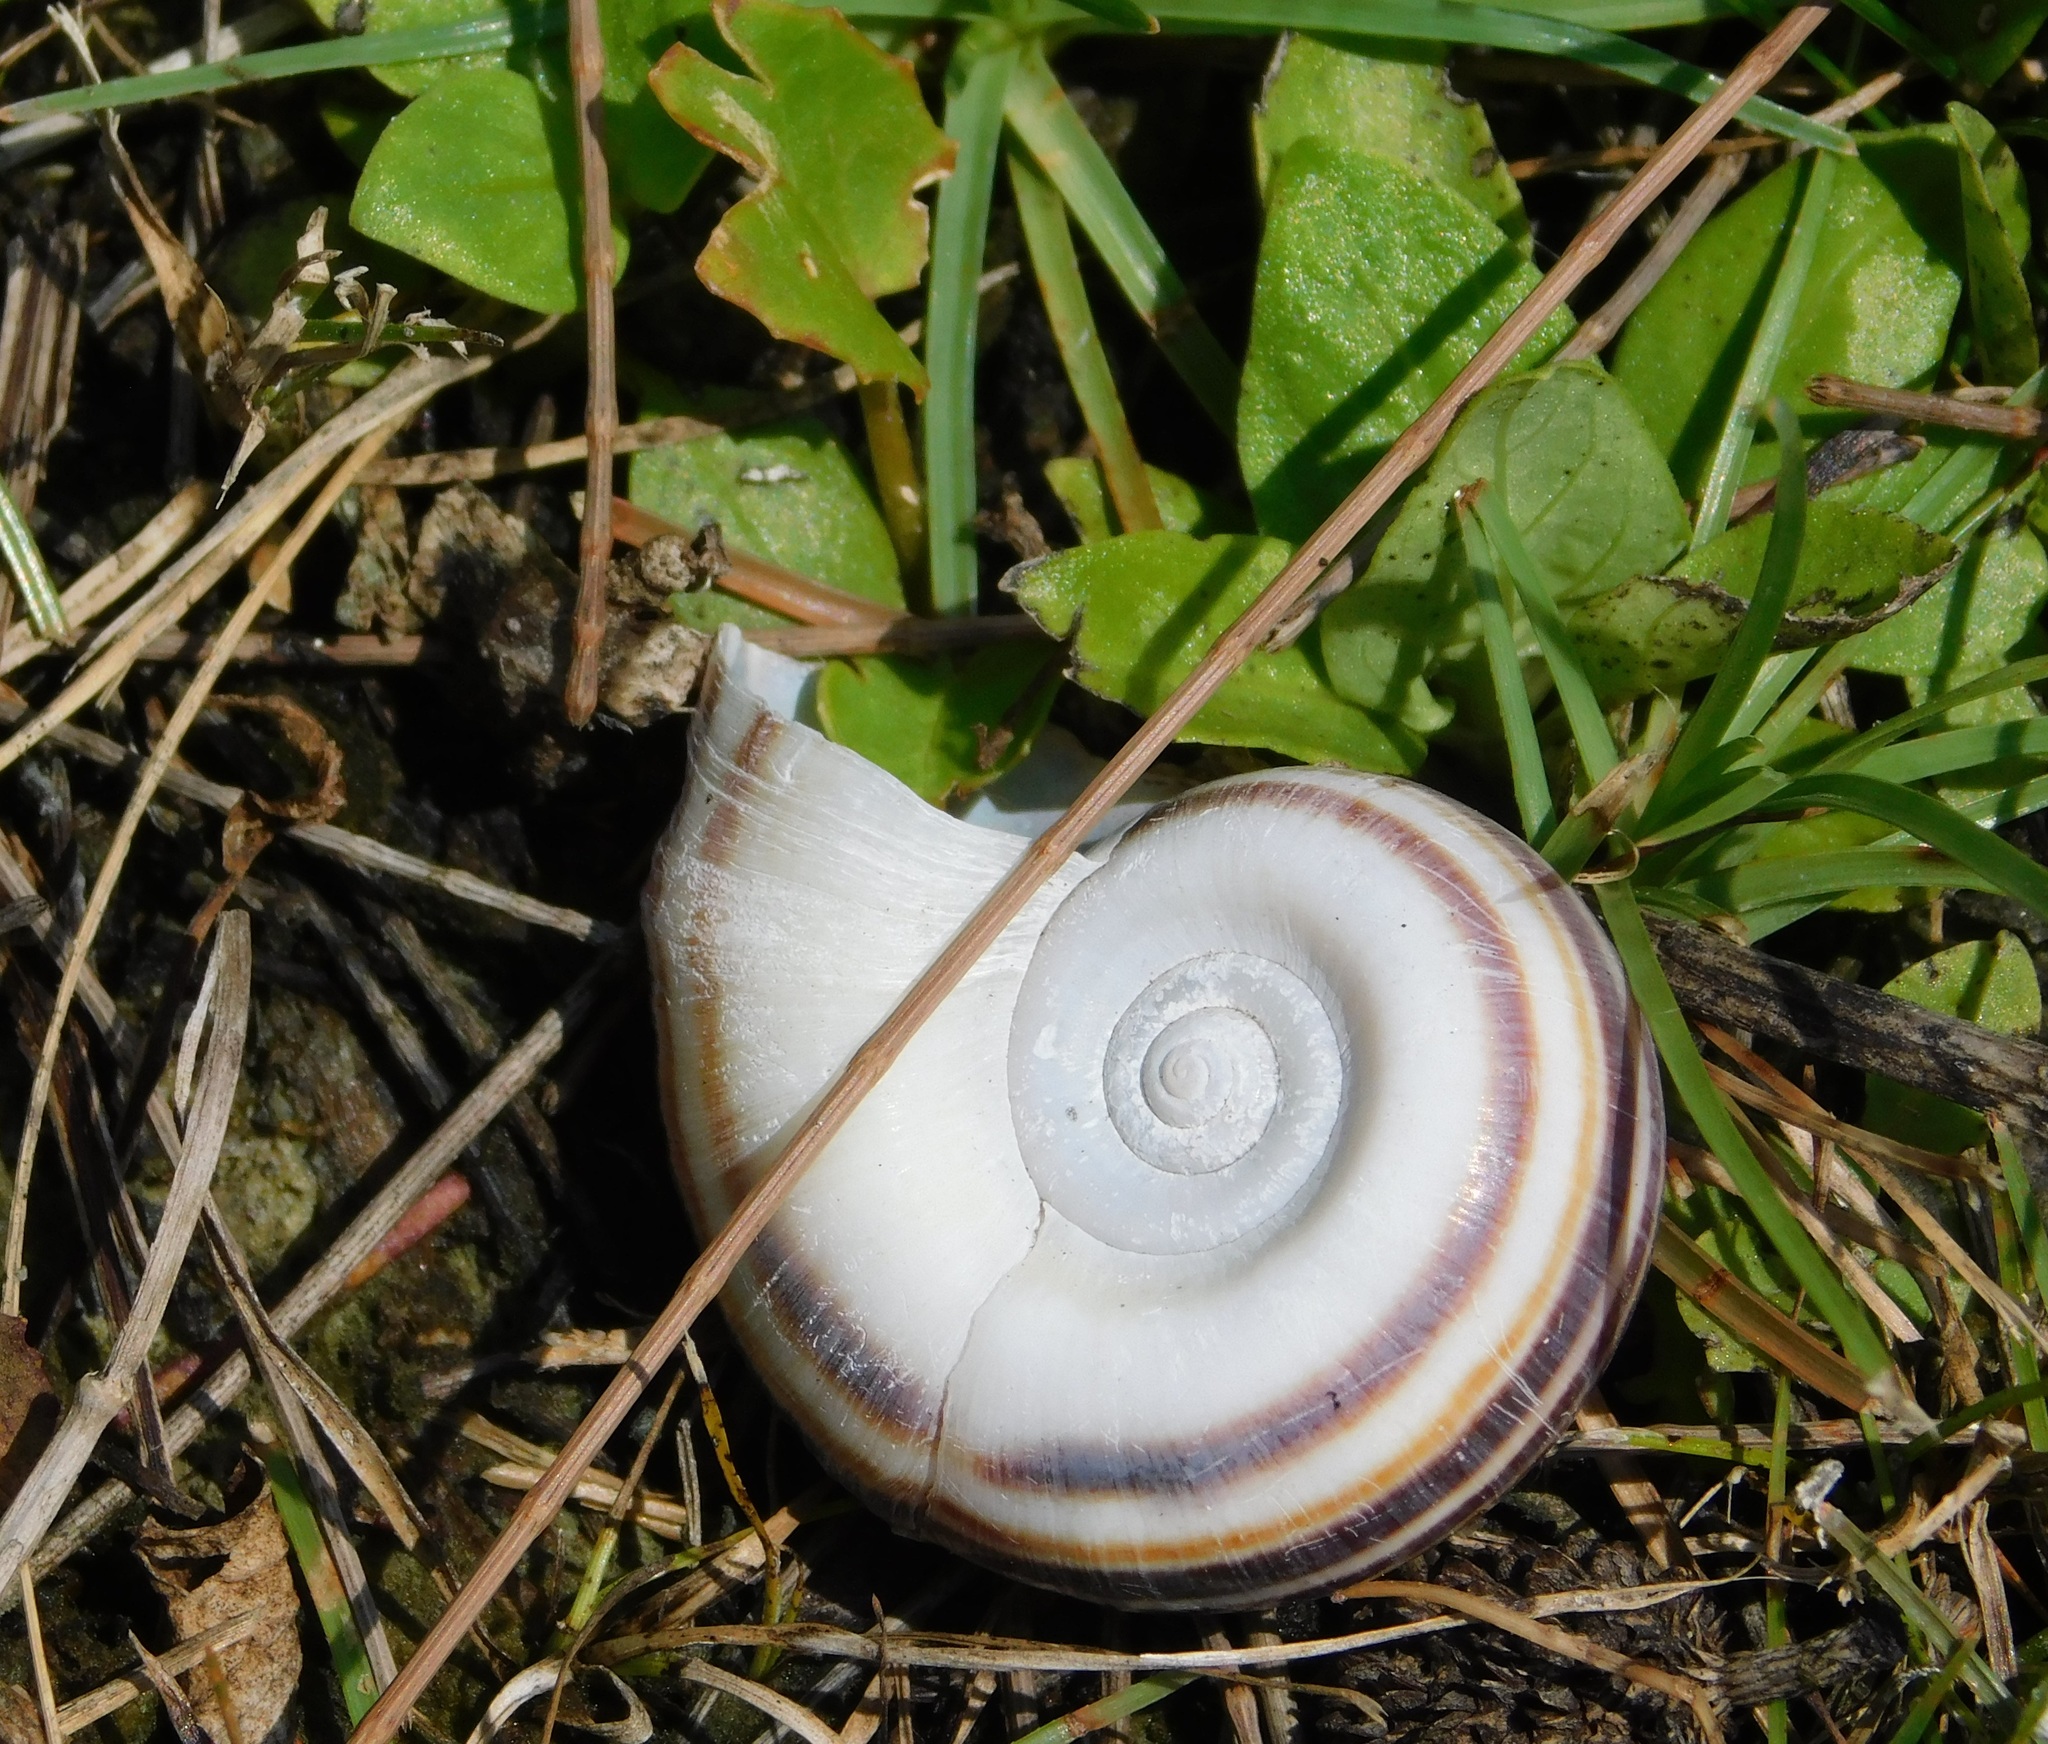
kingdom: Animalia
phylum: Mollusca
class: Gastropoda
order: Architaenioglossa
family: Ampullariidae
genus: Marisa
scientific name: Marisa cornuarietis
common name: Giant ramshorn snail
